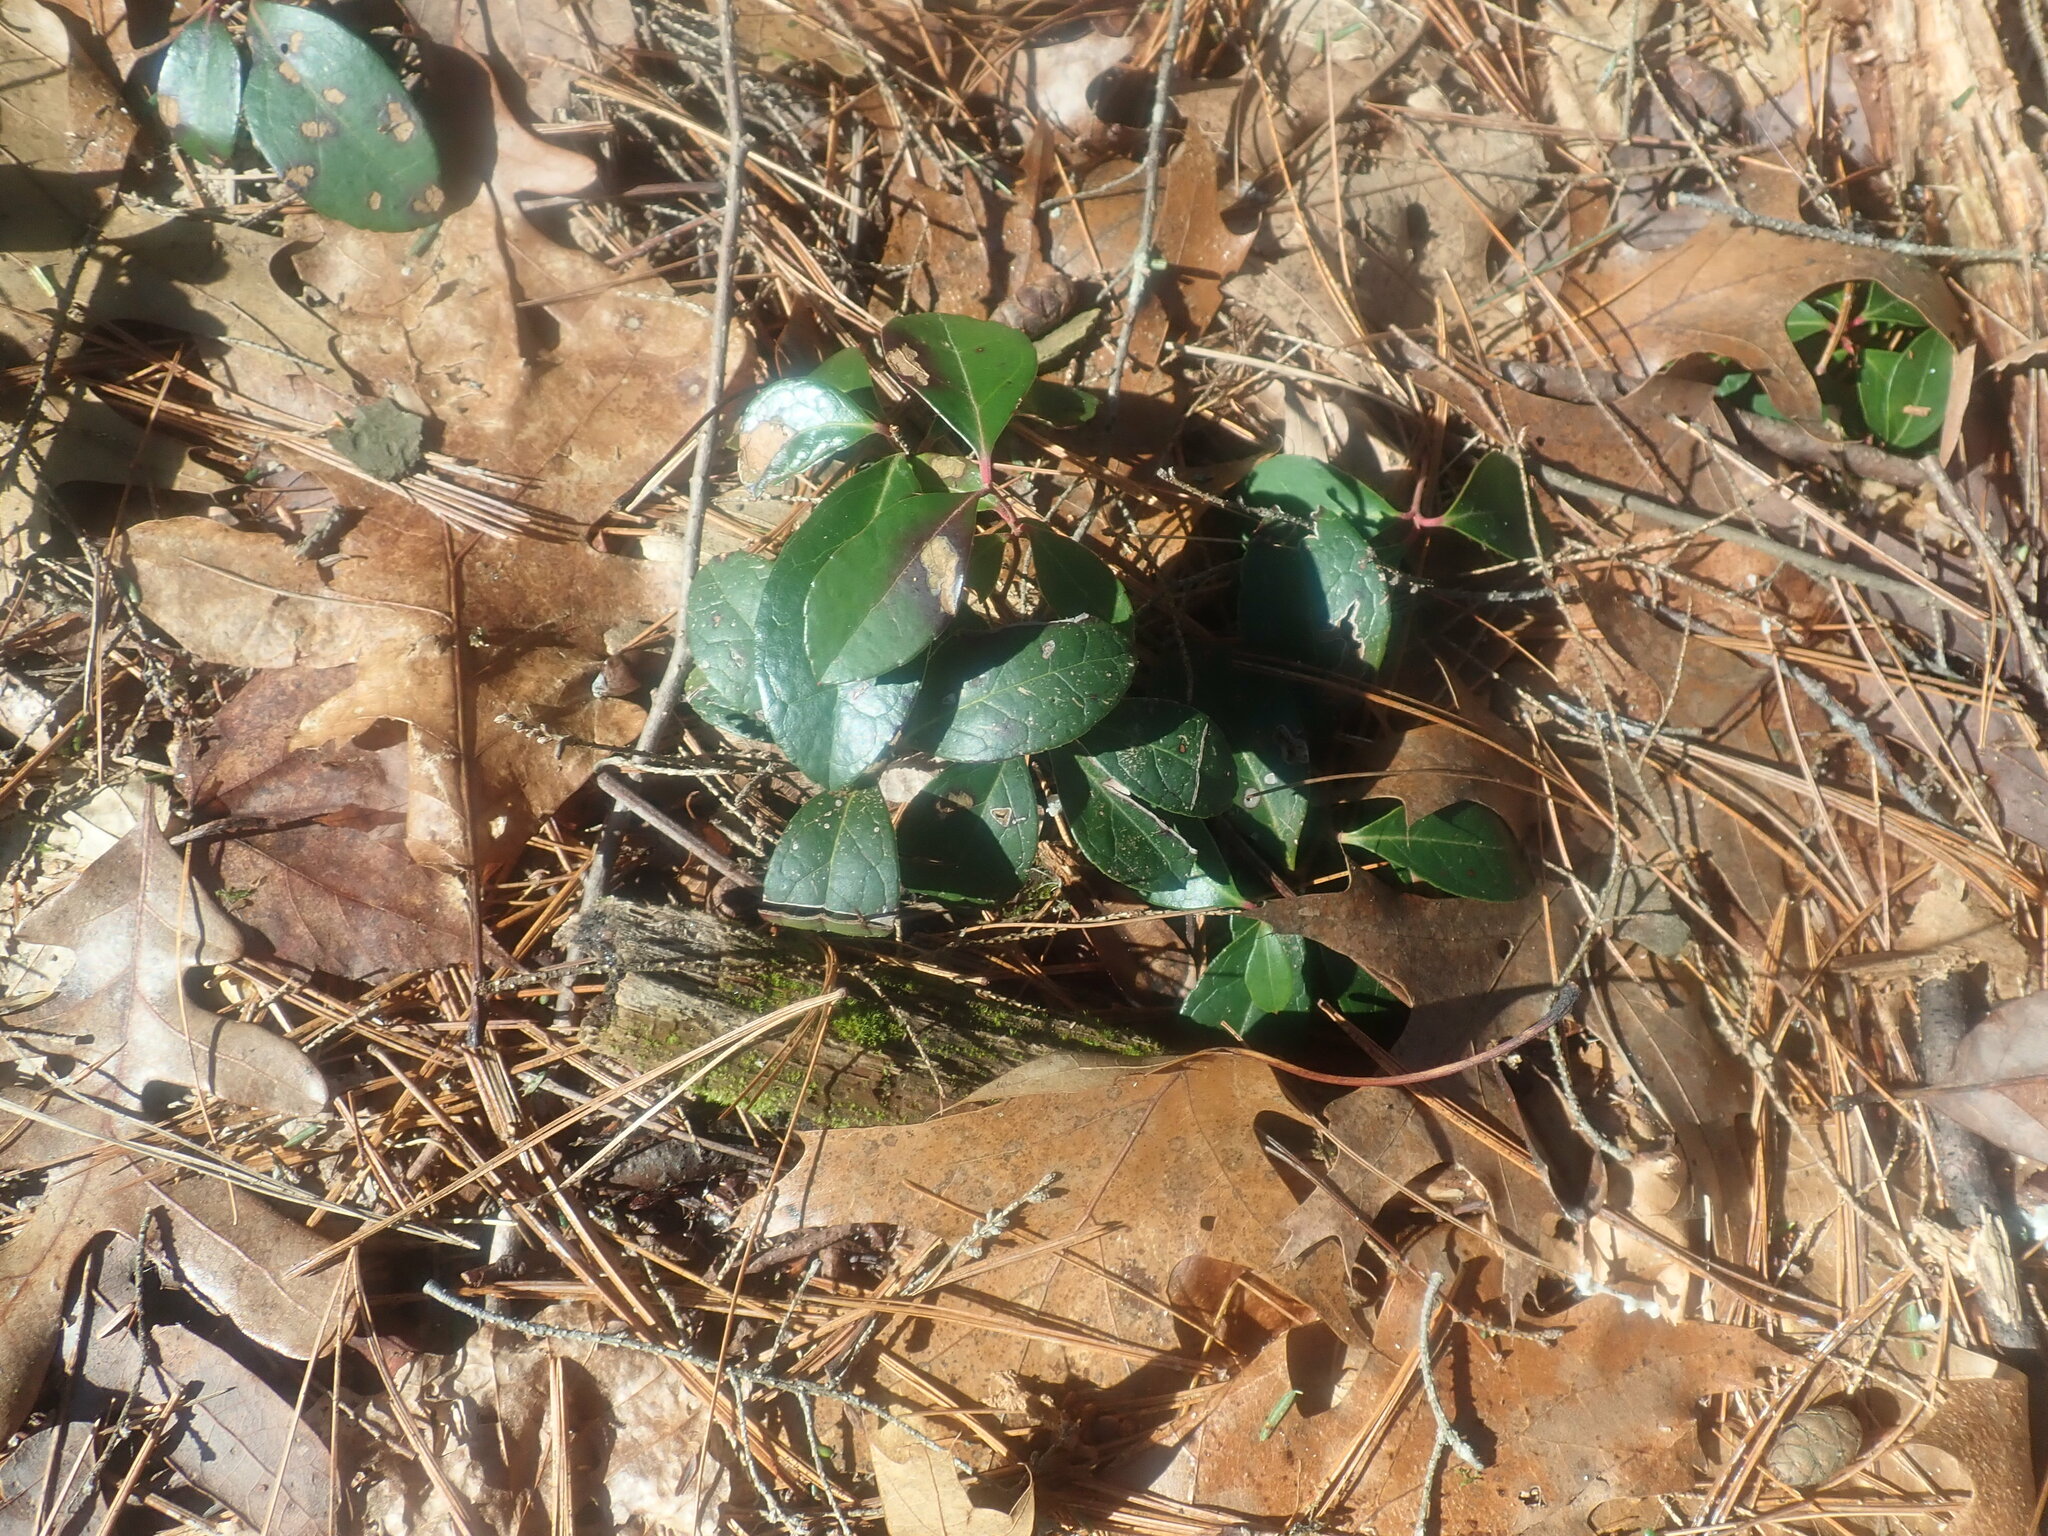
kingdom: Plantae
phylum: Tracheophyta
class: Magnoliopsida
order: Ericales
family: Ericaceae
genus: Gaultheria
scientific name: Gaultheria procumbens
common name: Checkerberry
